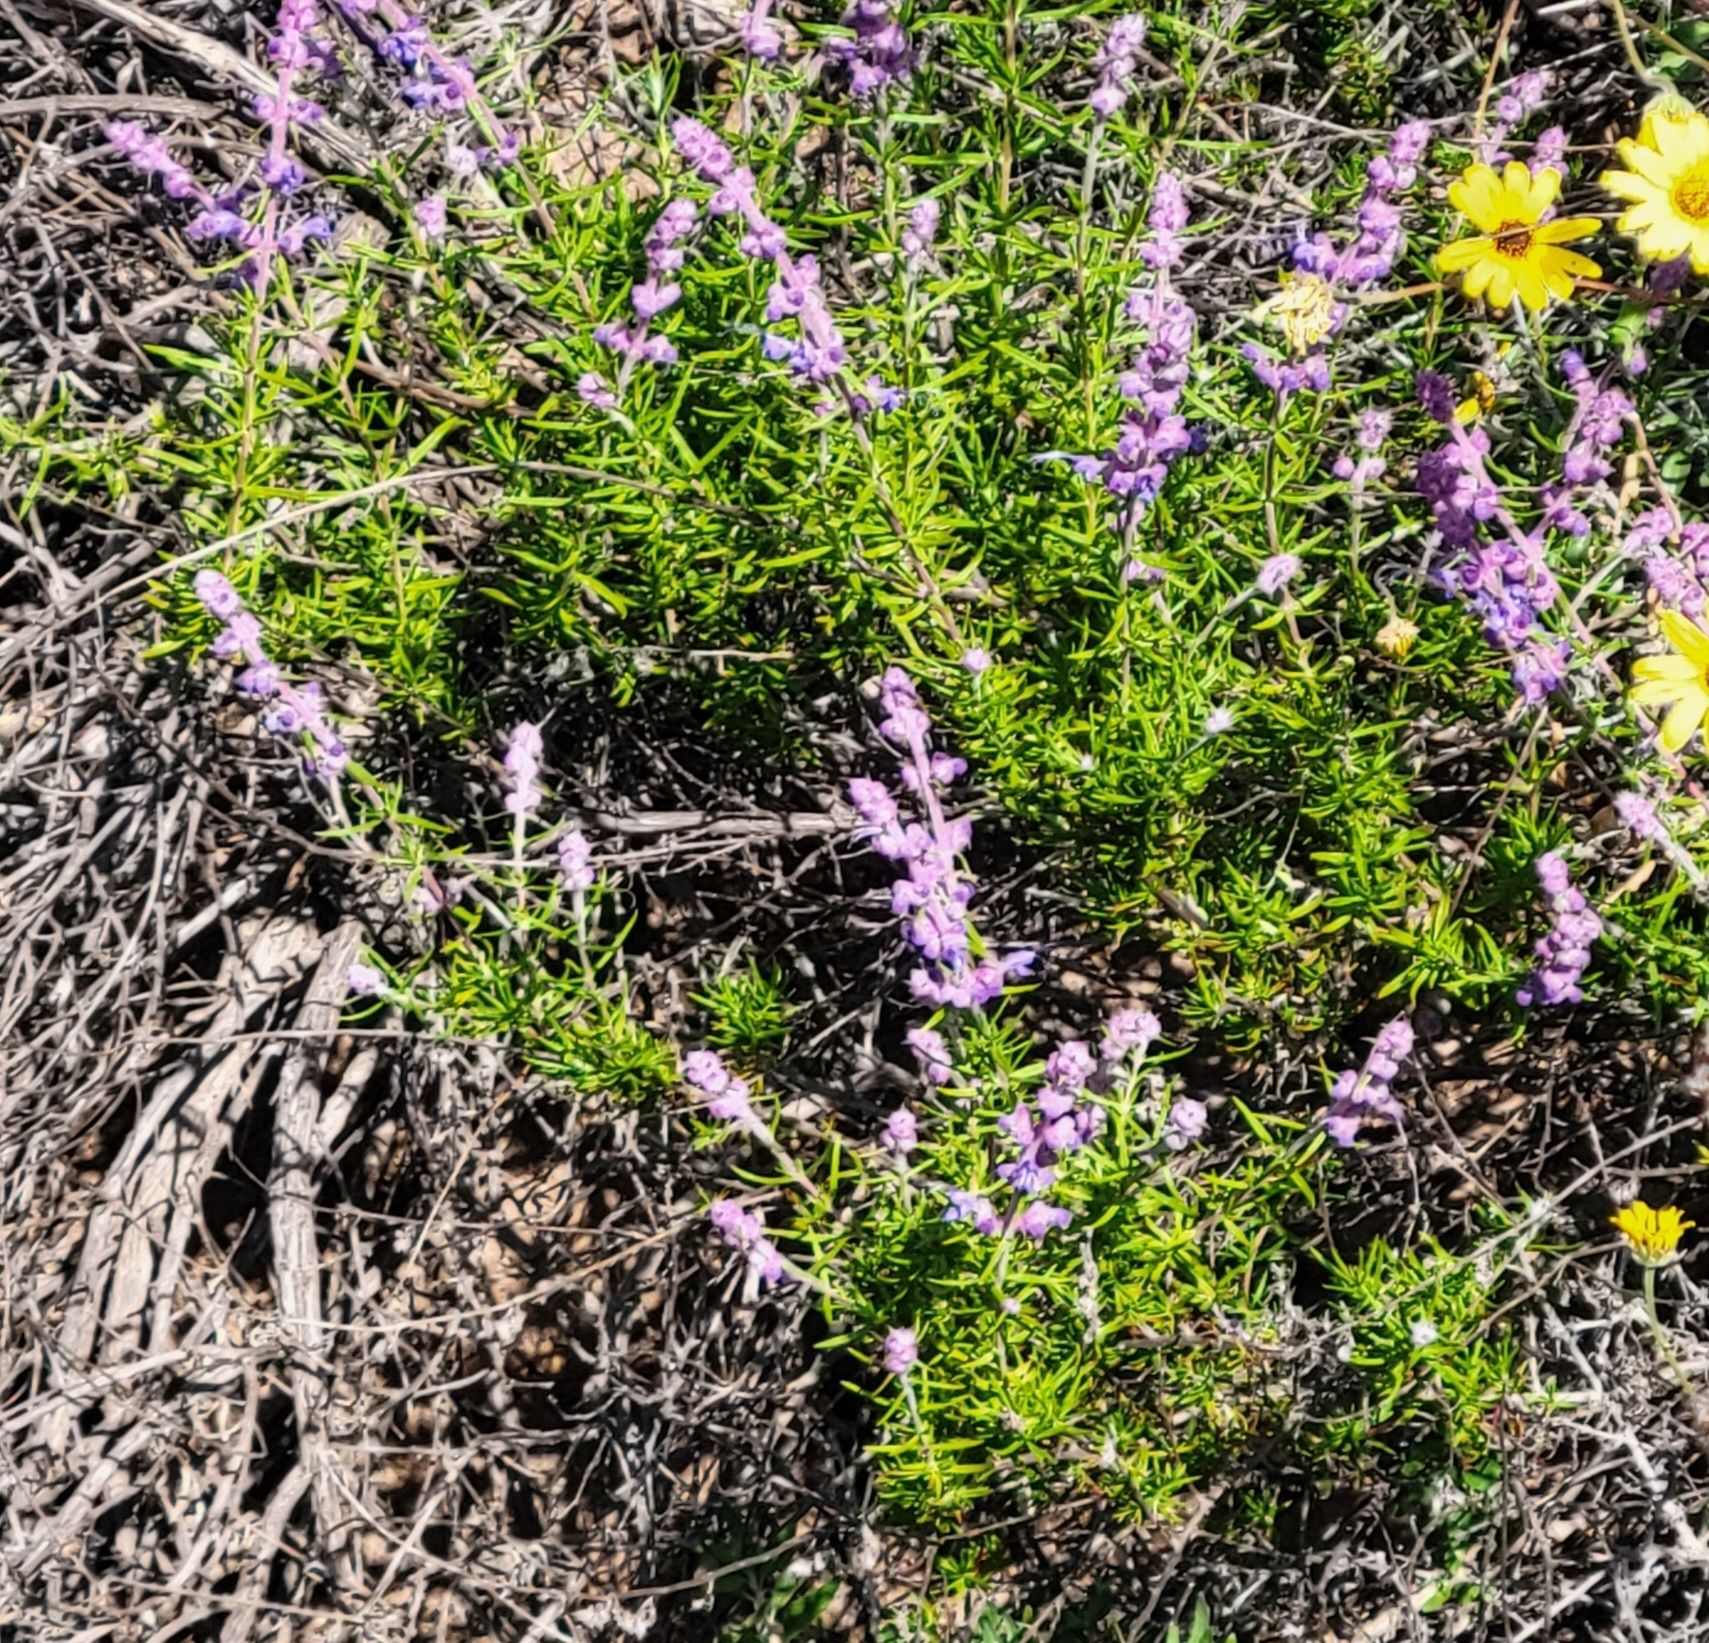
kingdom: Plantae
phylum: Tracheophyta
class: Magnoliopsida
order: Lamiales
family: Lamiaceae
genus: Trichostema
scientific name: Trichostema lanatum
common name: Woolly bluecurls
